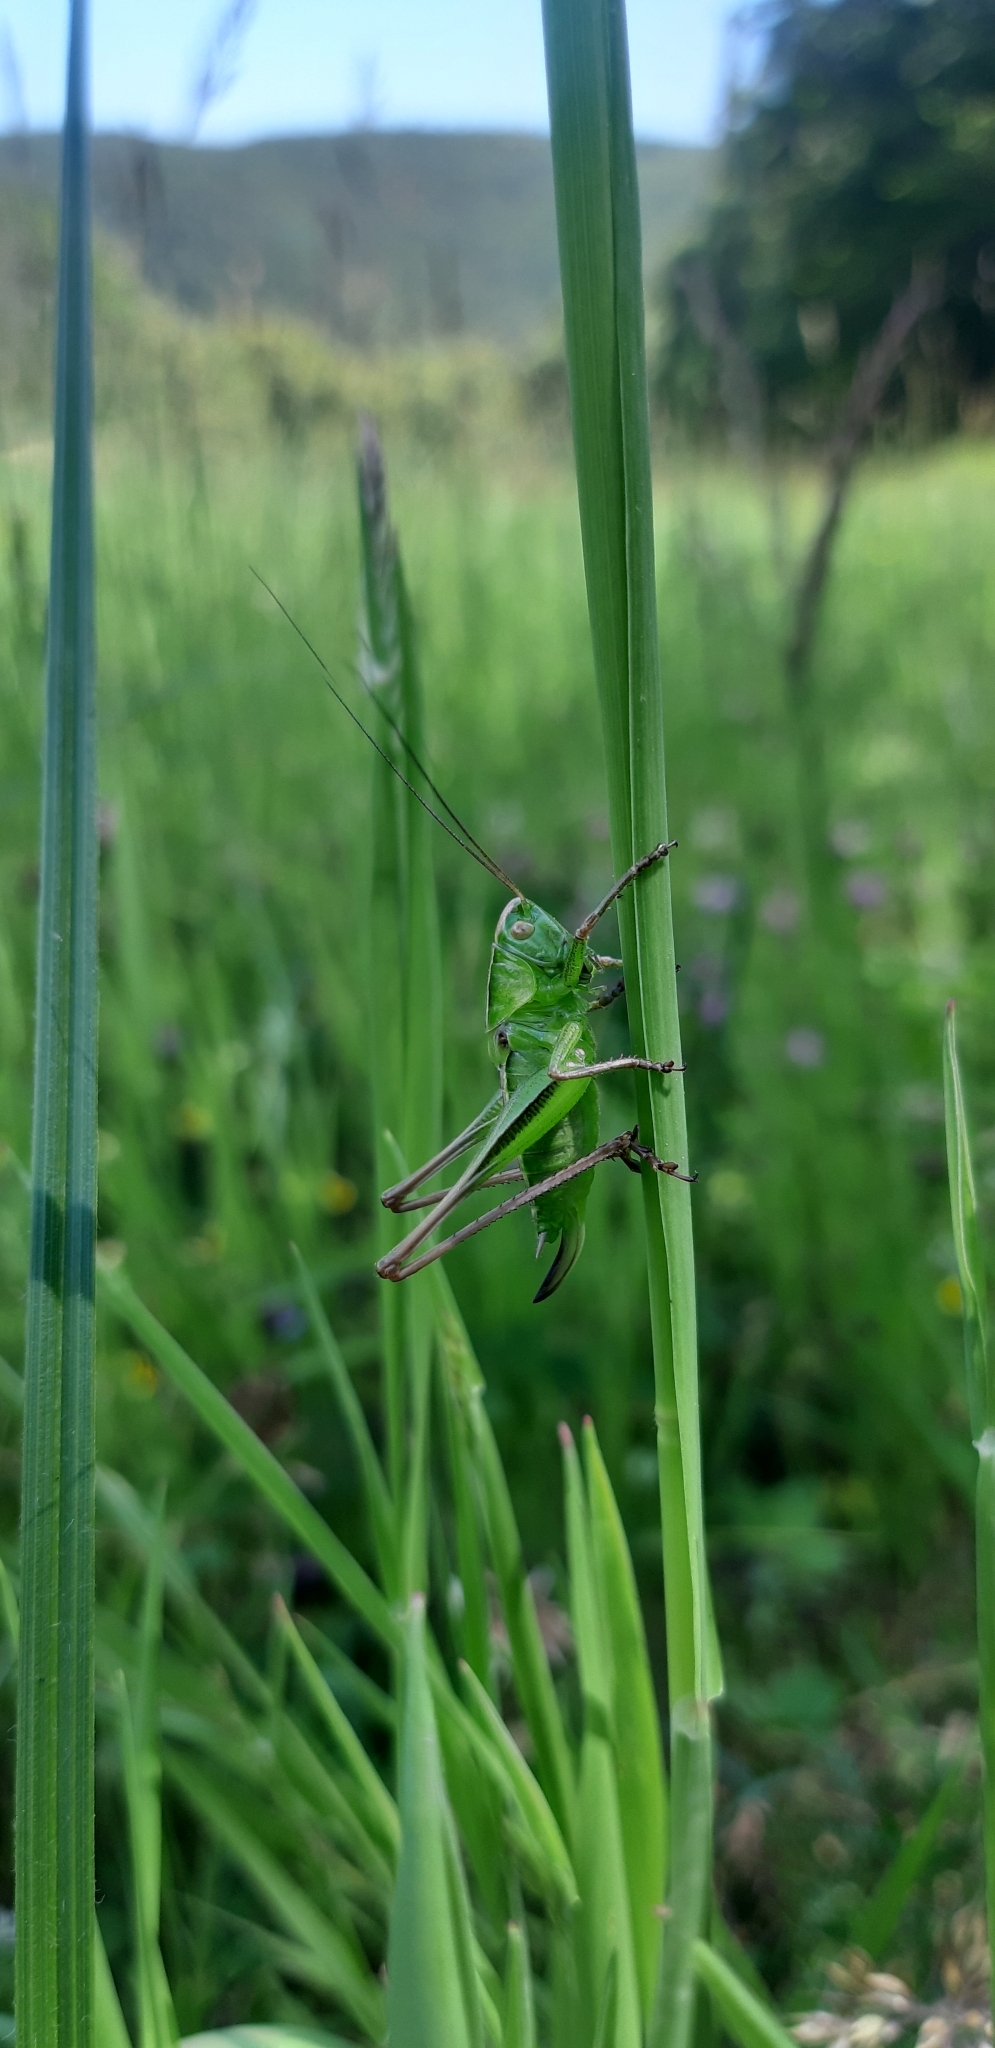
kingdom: Animalia
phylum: Arthropoda
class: Insecta
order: Orthoptera
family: Tettigoniidae
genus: Bicolorana
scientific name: Bicolorana bicolor
